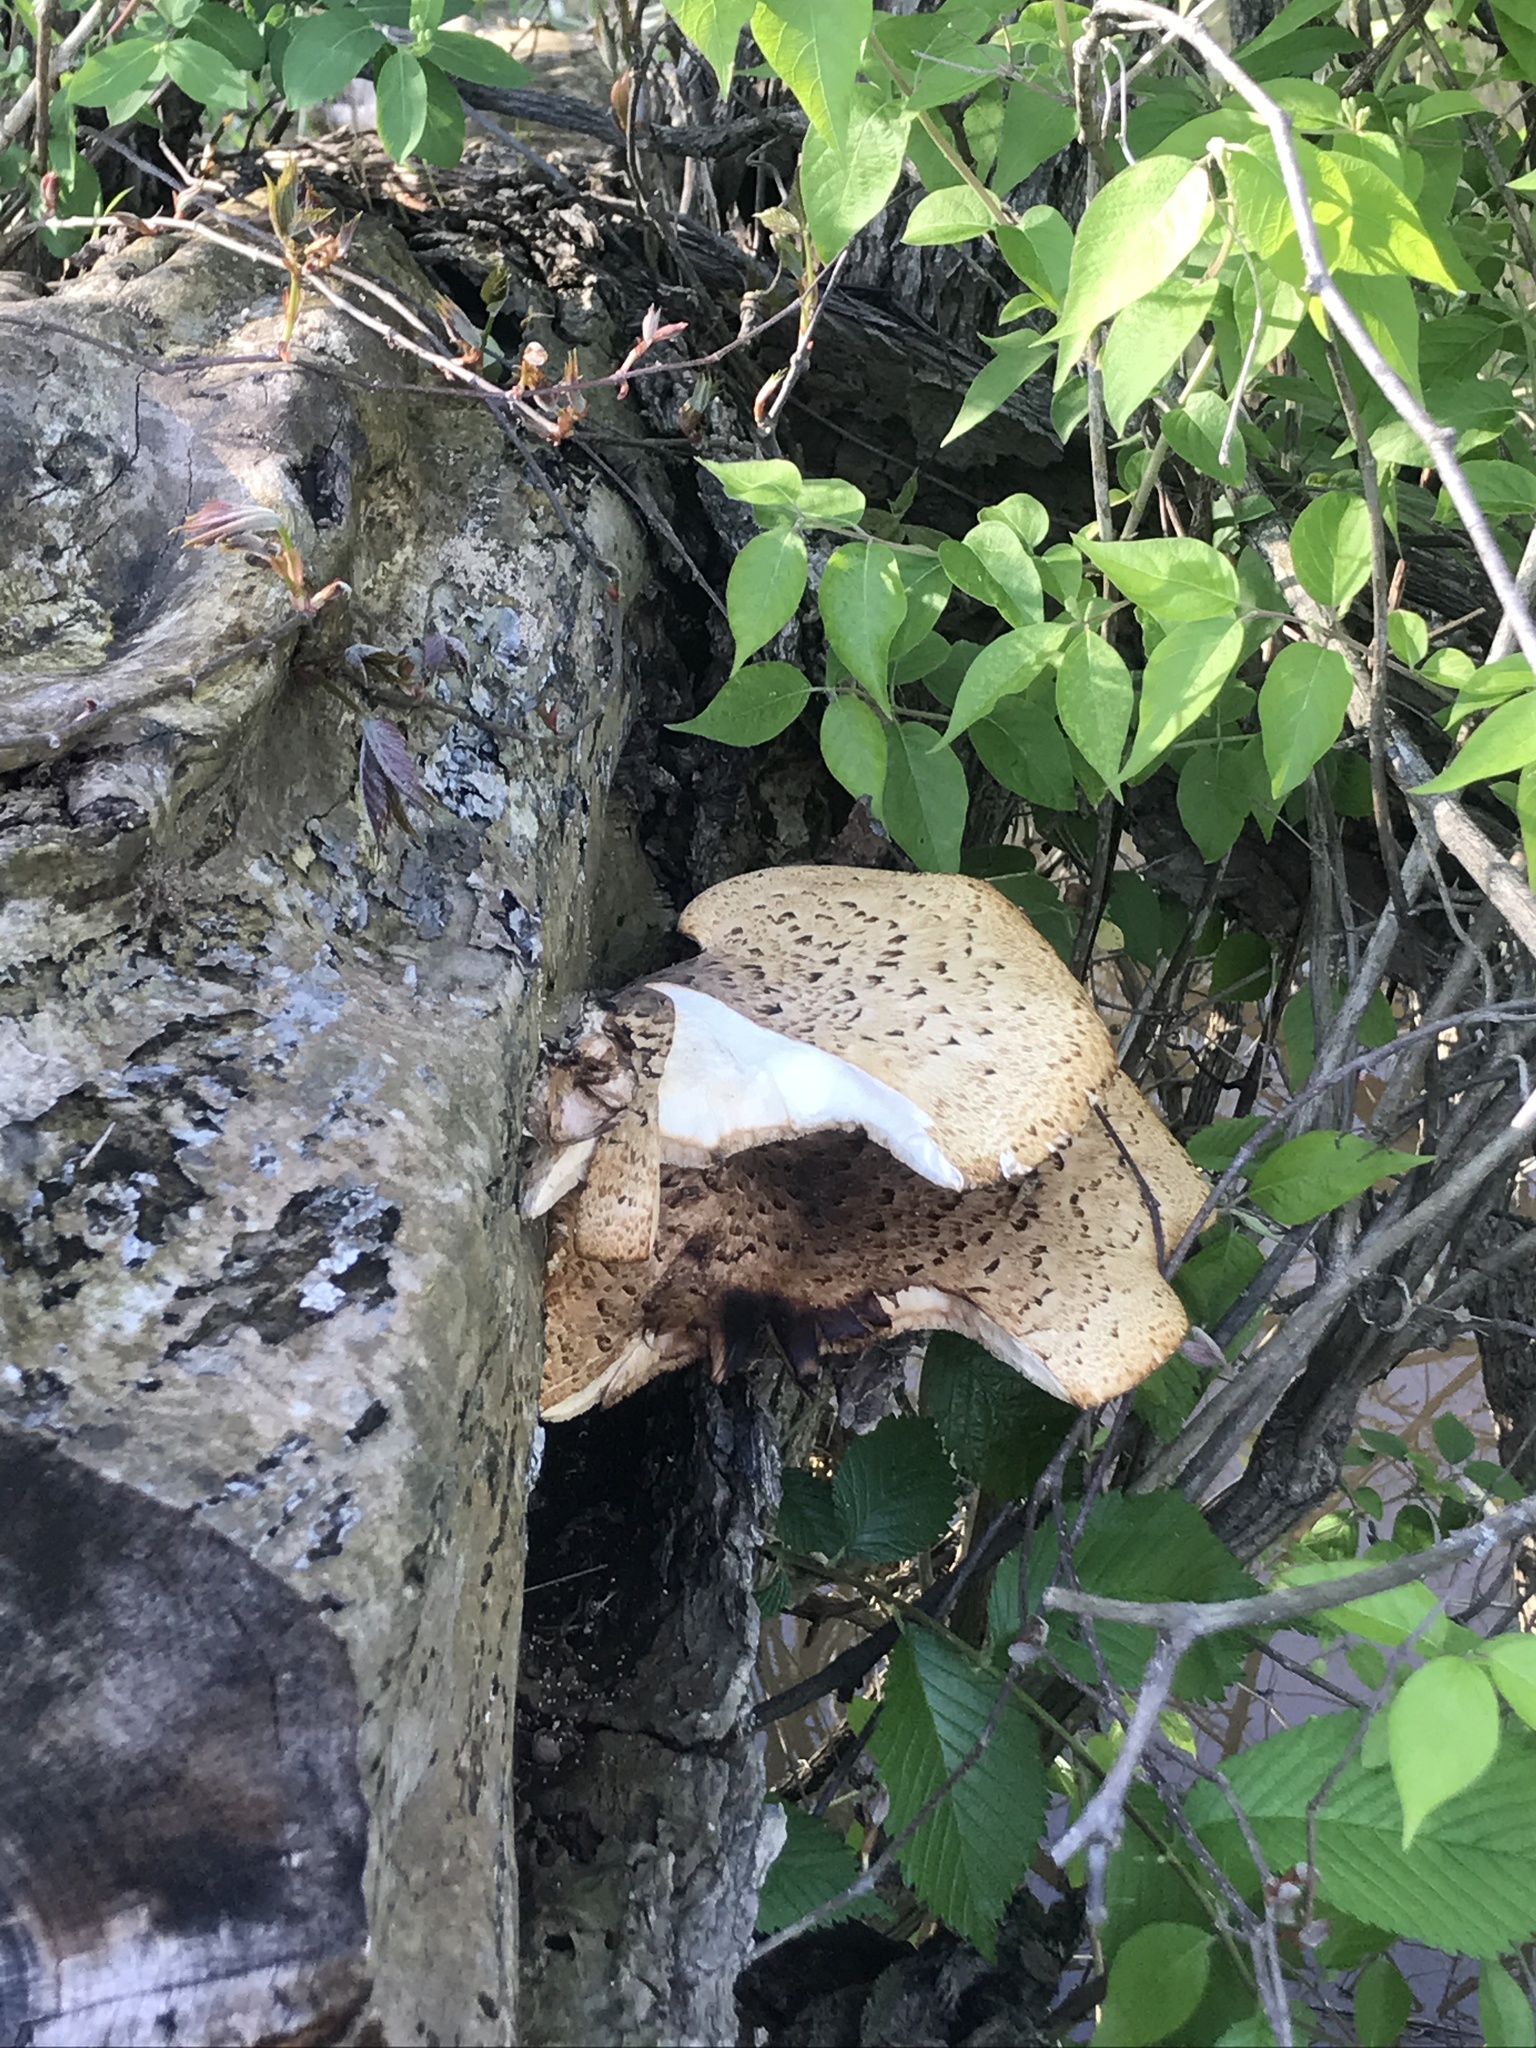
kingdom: Fungi
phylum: Basidiomycota
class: Agaricomycetes
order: Polyporales
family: Polyporaceae
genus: Cerioporus
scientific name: Cerioporus squamosus
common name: Dryad's saddle
